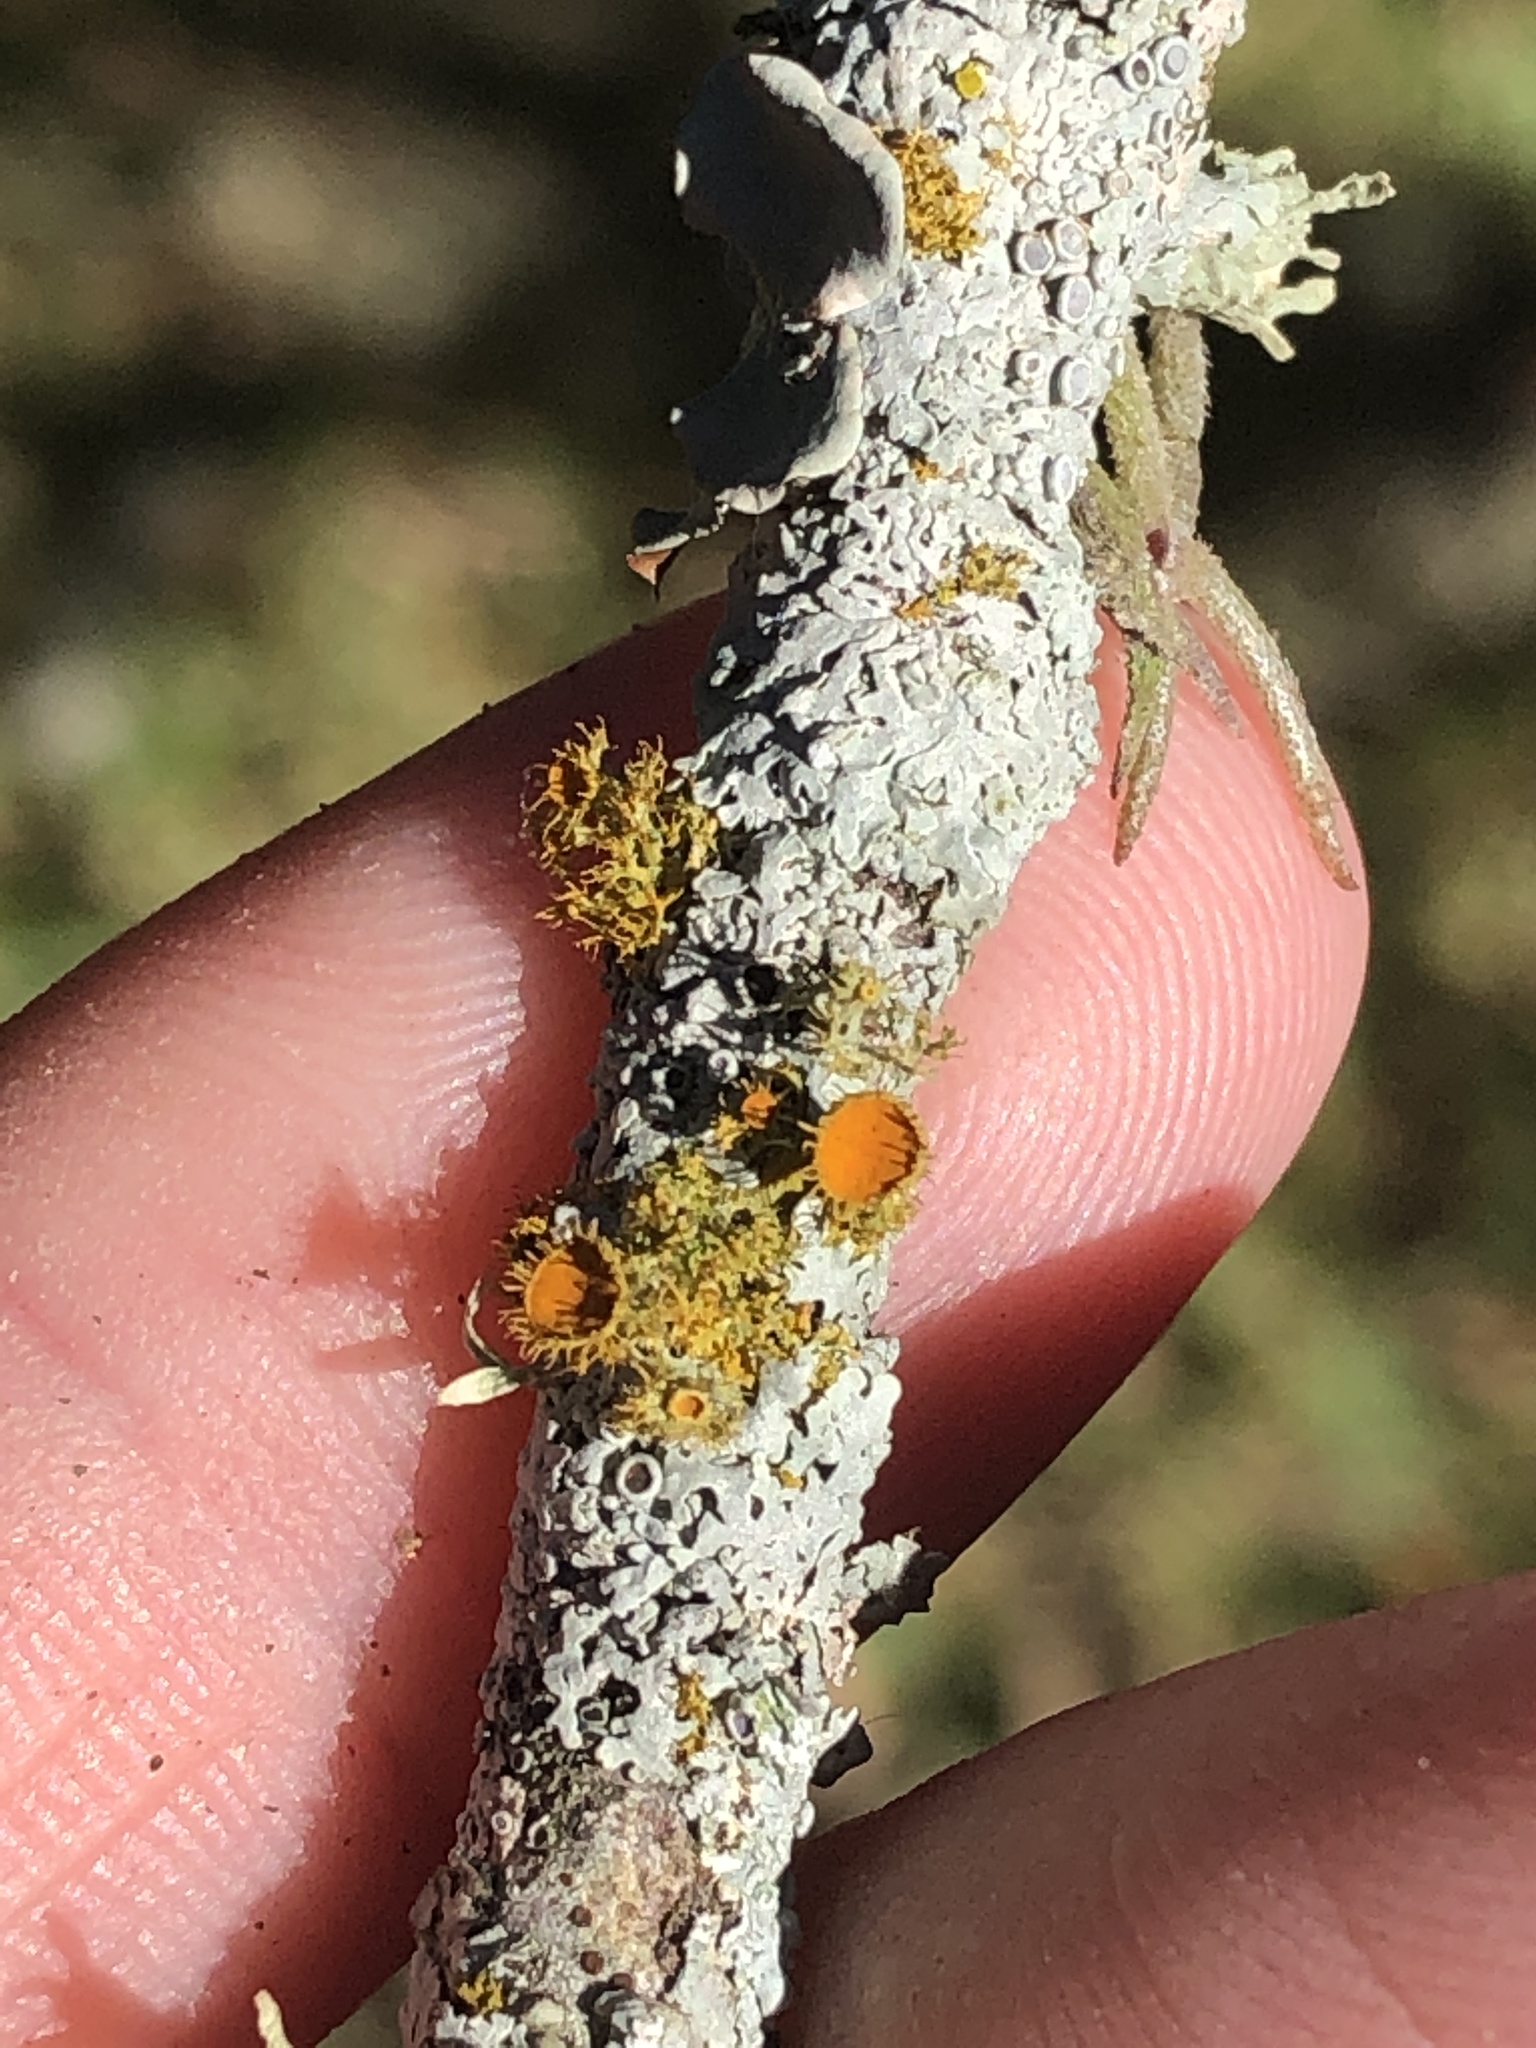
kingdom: Fungi
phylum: Ascomycota
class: Lecanoromycetes
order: Teloschistales
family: Teloschistaceae
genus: Niorma
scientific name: Niorma chrysophthalma
